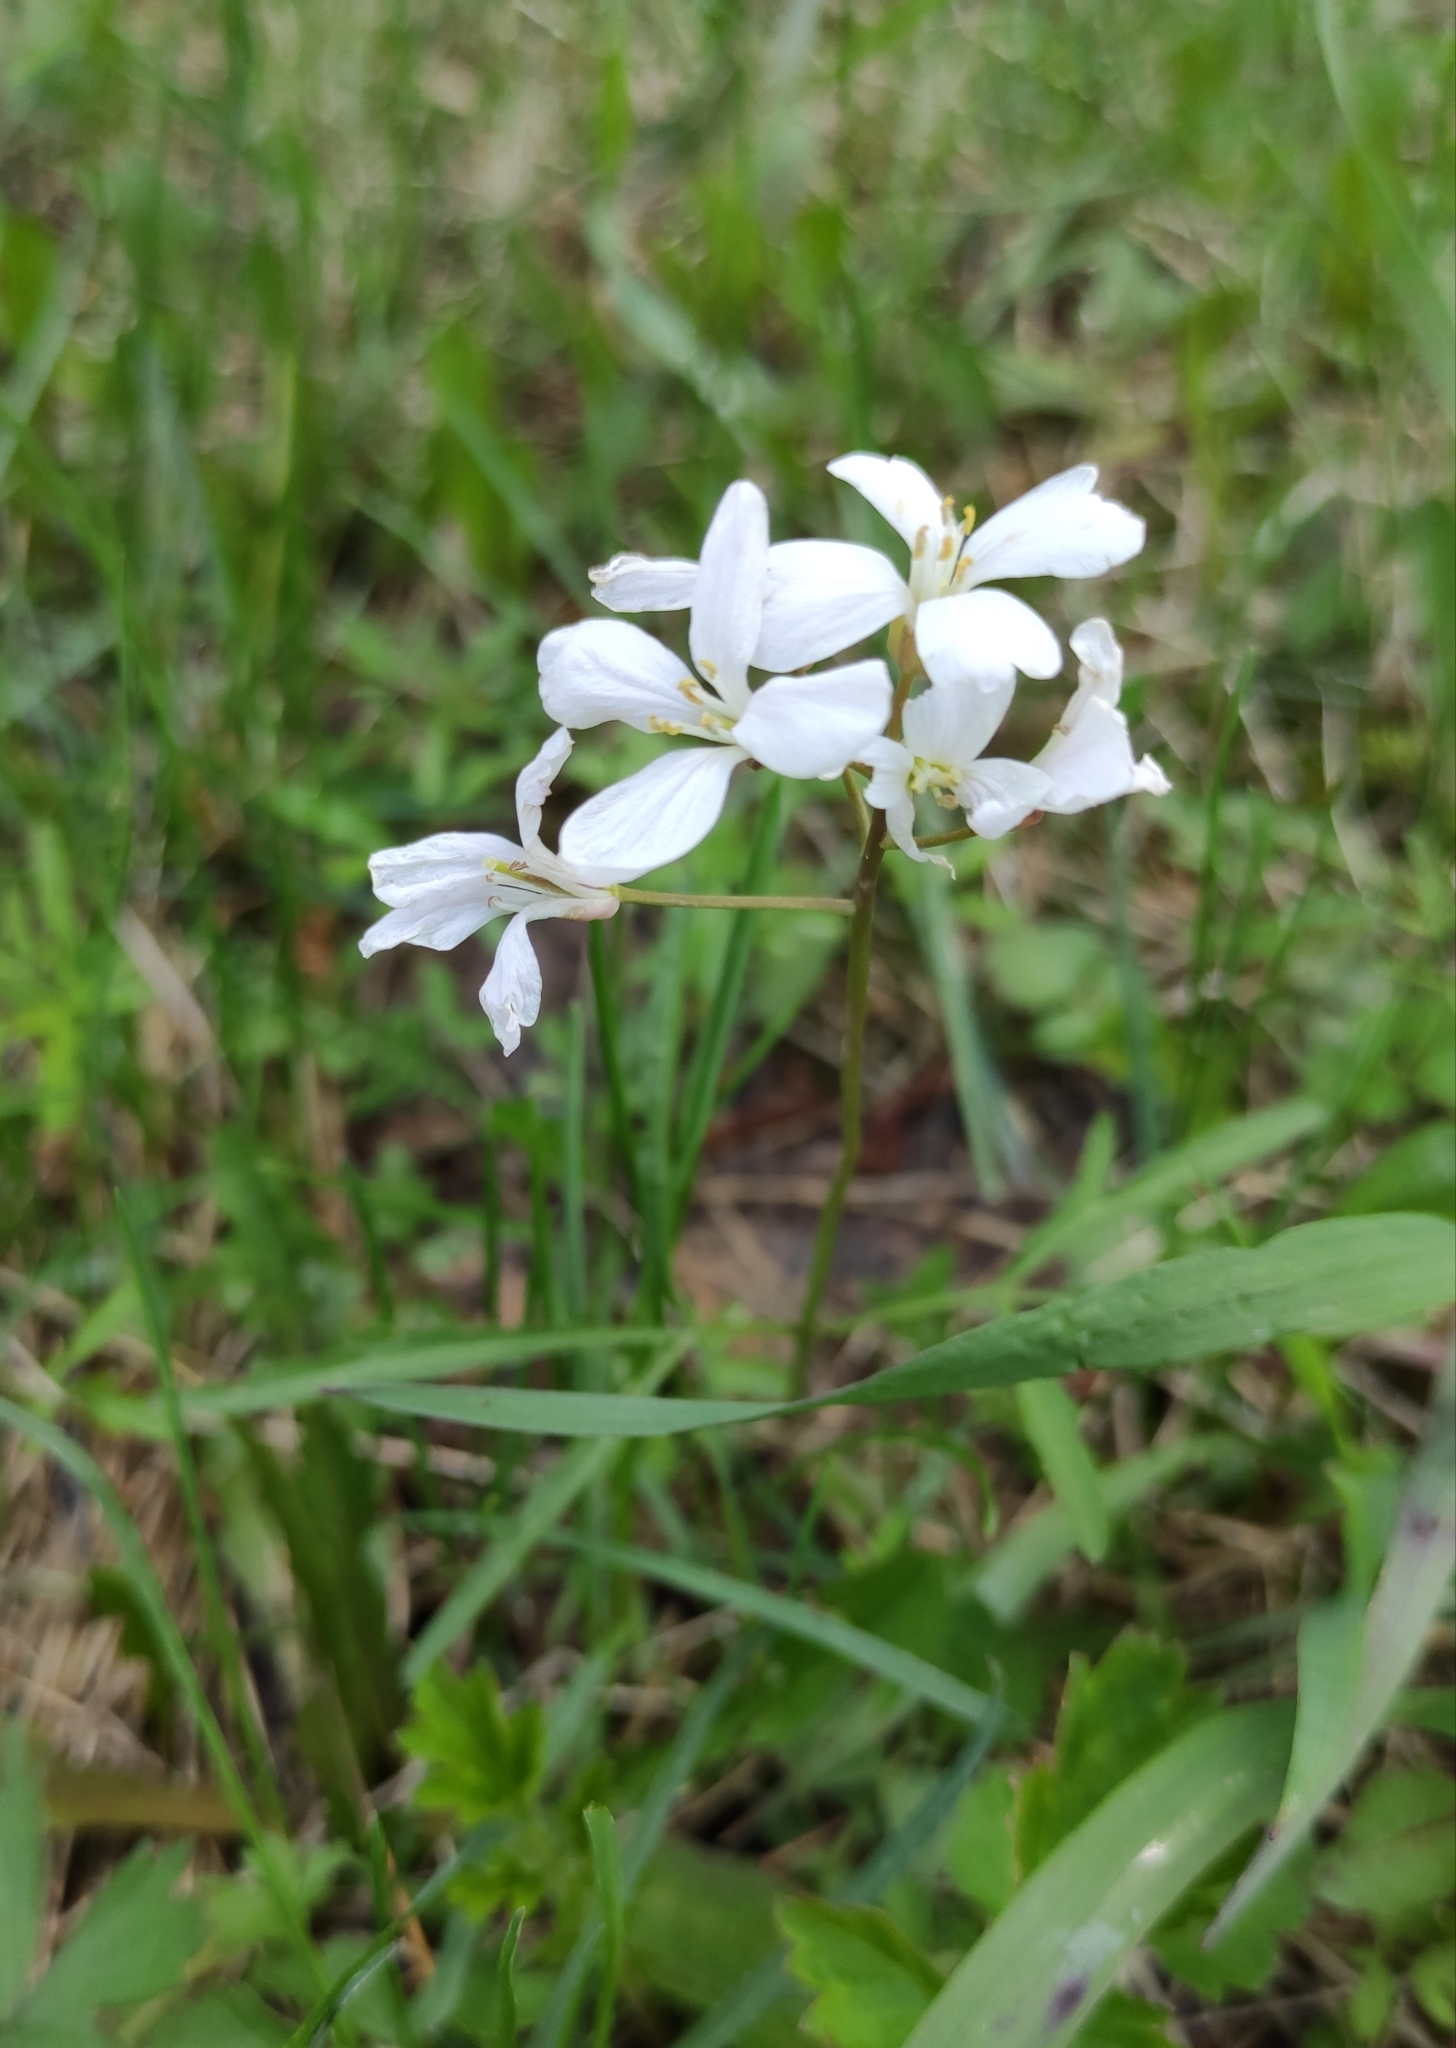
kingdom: Plantae
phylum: Tracheophyta
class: Magnoliopsida
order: Brassicales
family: Brassicaceae
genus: Cardamine
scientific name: Cardamine trifida
